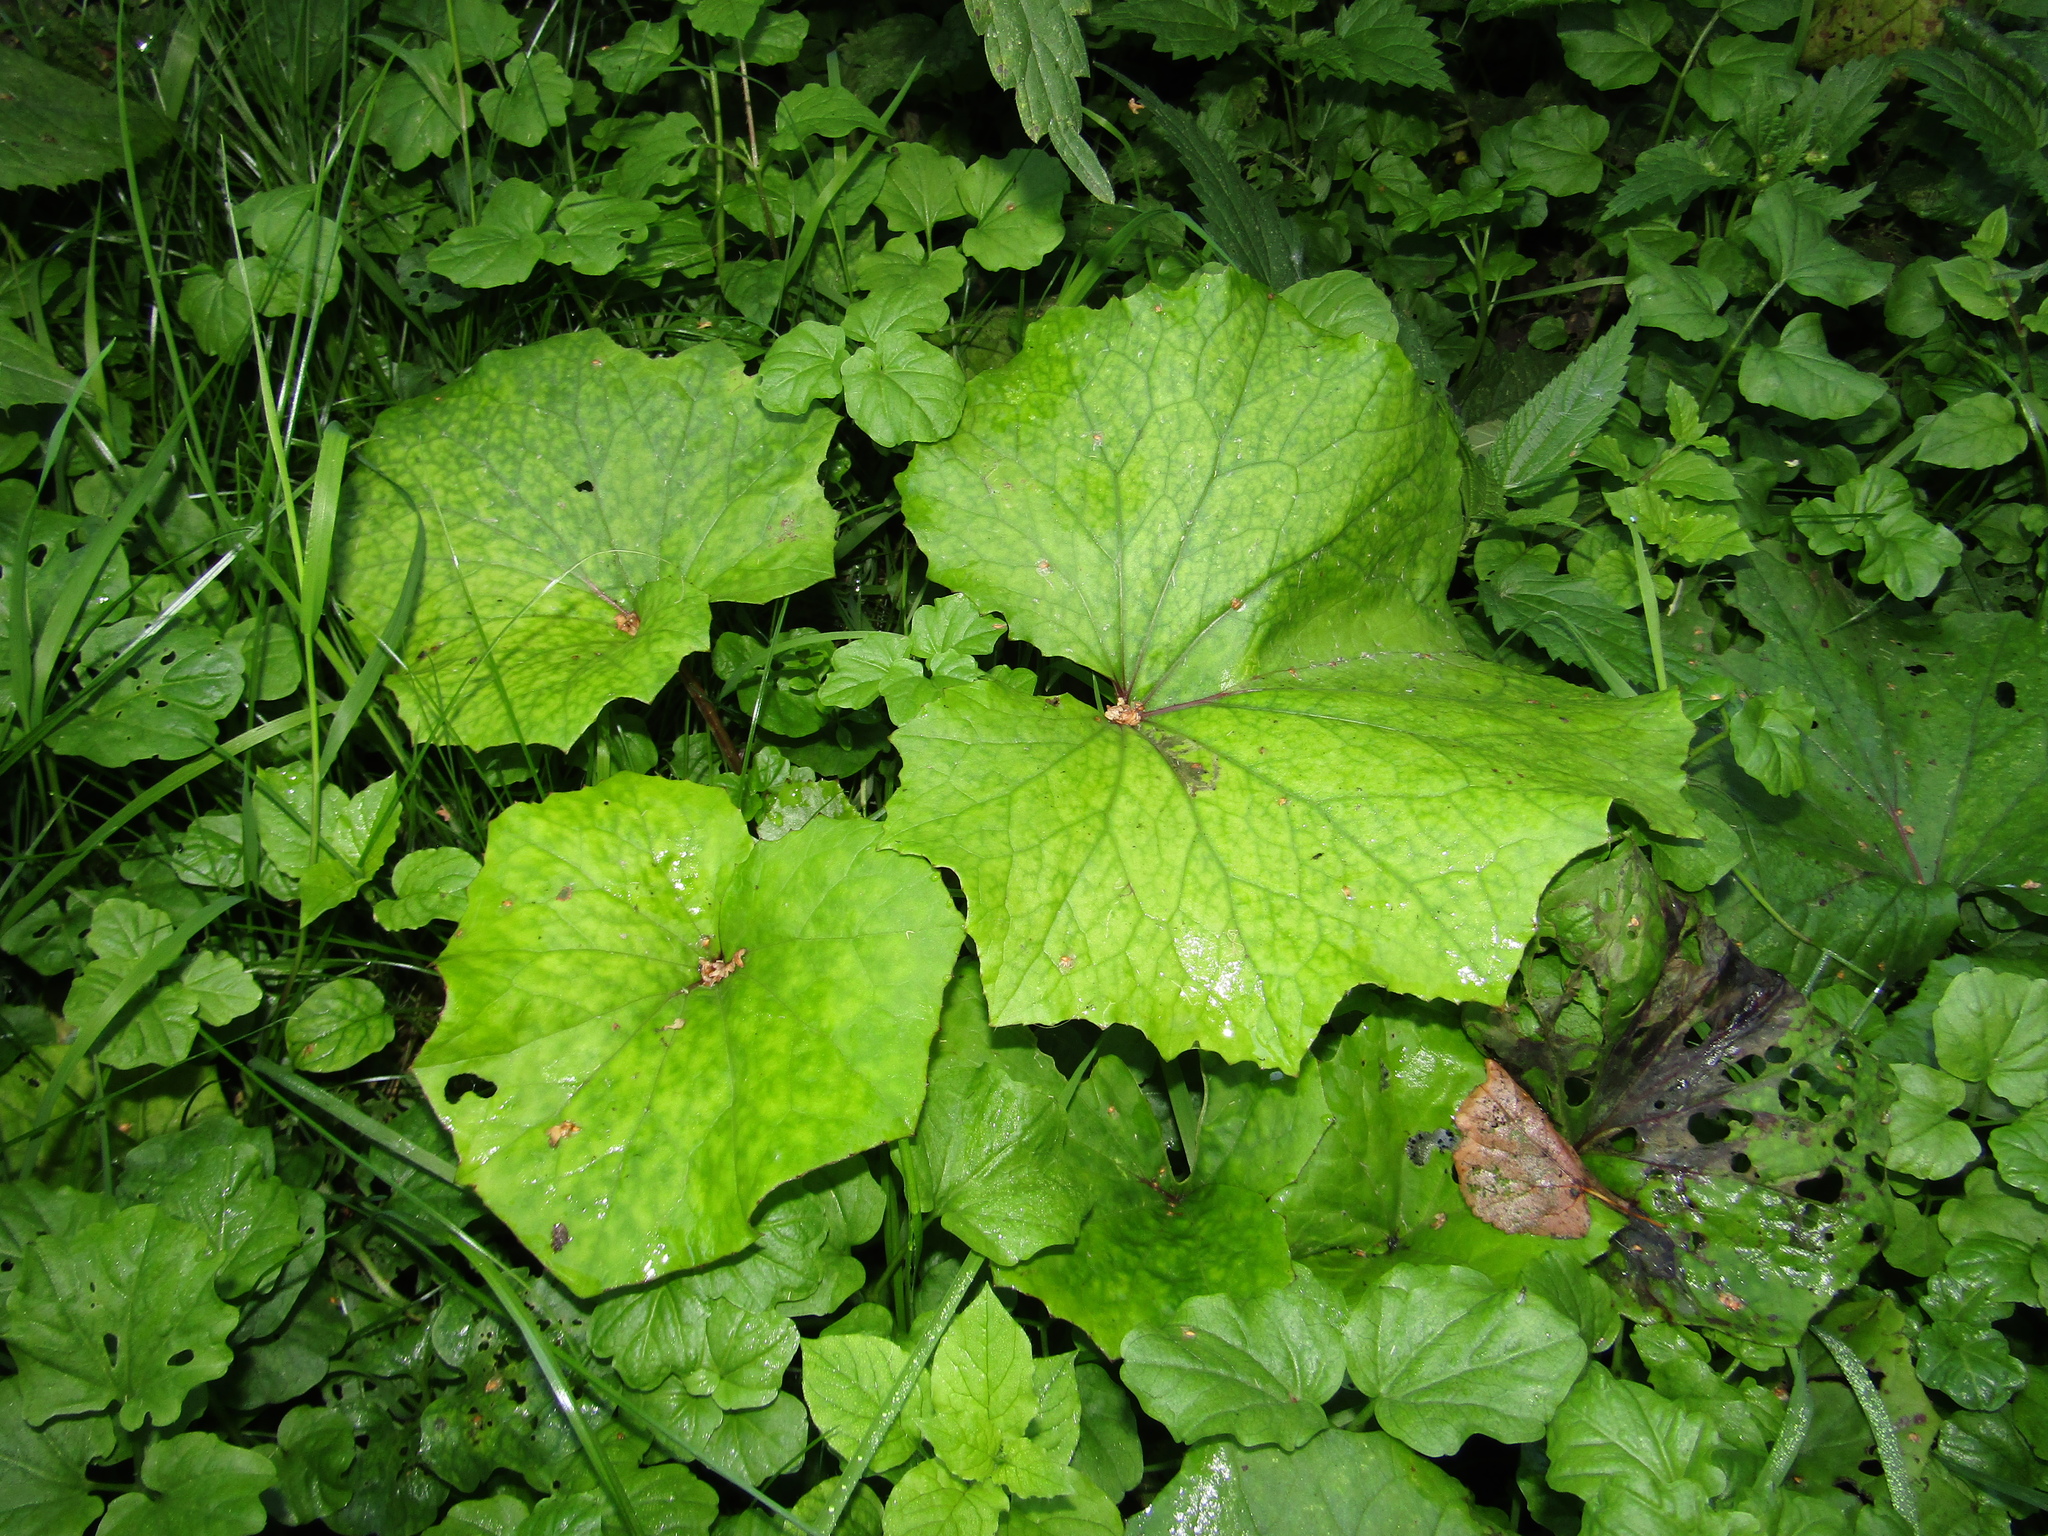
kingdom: Plantae
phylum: Tracheophyta
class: Magnoliopsida
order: Asterales
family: Asteraceae
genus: Tussilago
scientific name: Tussilago farfara
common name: Coltsfoot
